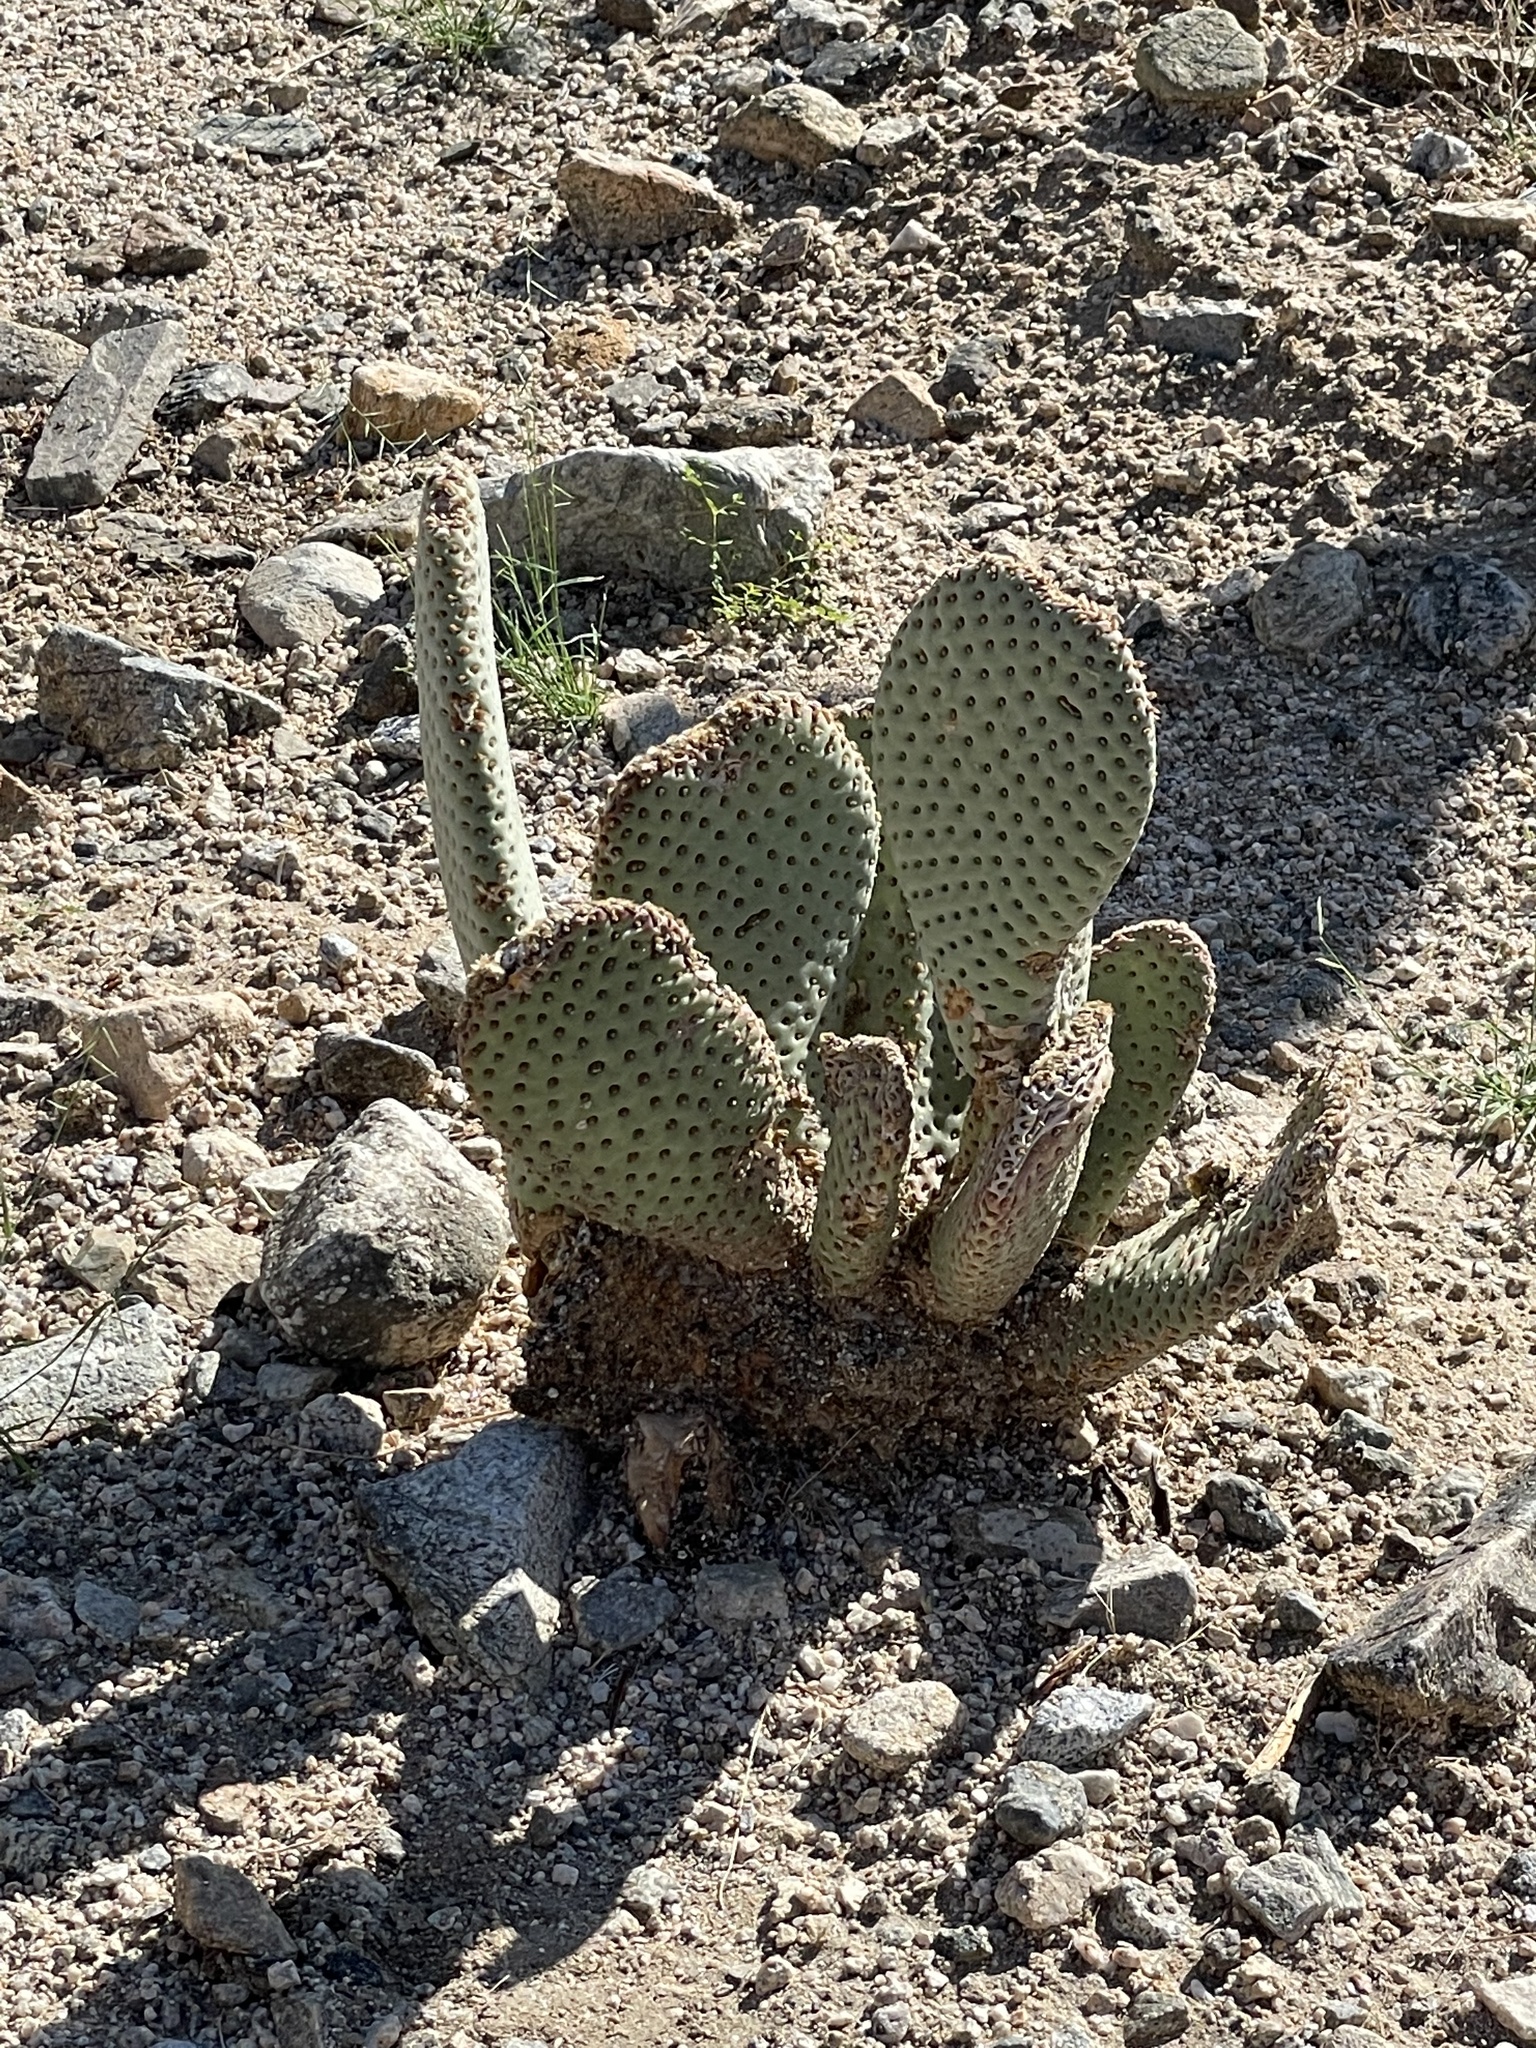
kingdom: Plantae
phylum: Tracheophyta
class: Magnoliopsida
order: Caryophyllales
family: Cactaceae
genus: Opuntia
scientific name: Opuntia basilaris
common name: Beavertail prickly-pear
